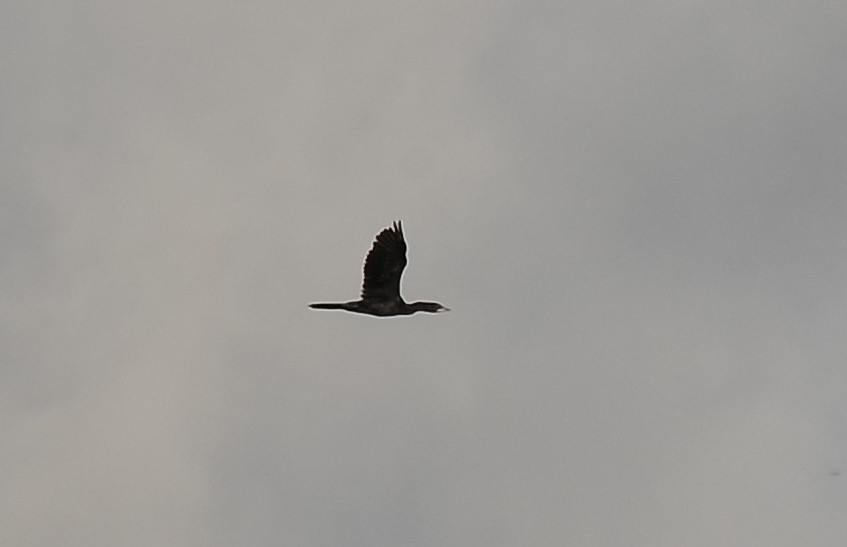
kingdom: Animalia
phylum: Chordata
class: Aves
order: Suliformes
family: Phalacrocoracidae
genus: Microcarbo
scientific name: Microcarbo niger
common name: Little cormorant
